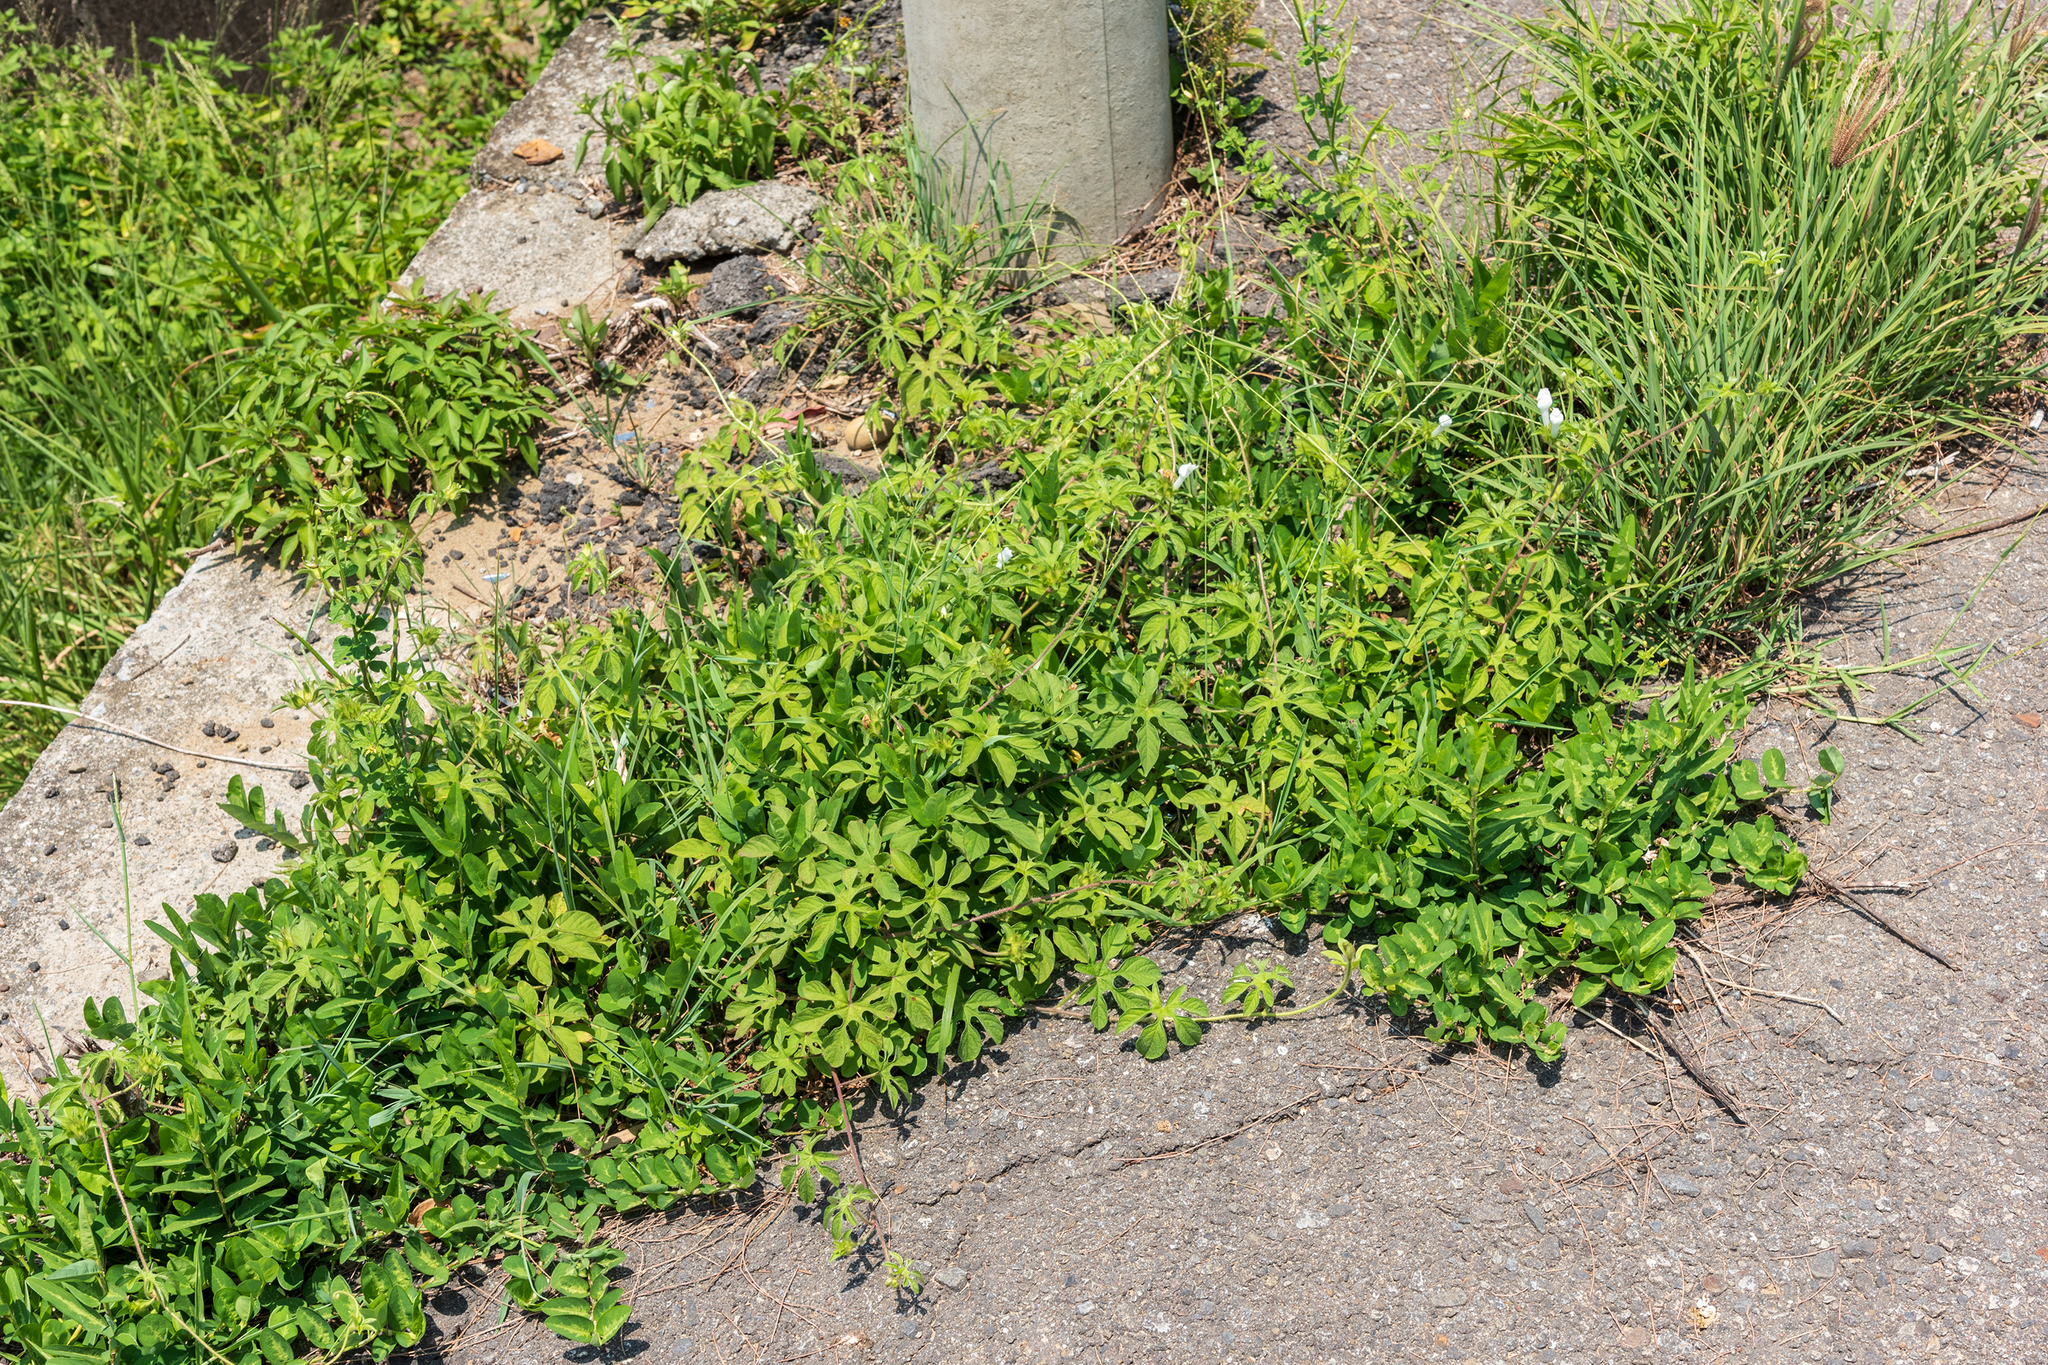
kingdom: Plantae
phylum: Tracheophyta
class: Magnoliopsida
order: Solanales
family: Convolvulaceae
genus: Ipomoea
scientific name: Ipomoea pes-tigridis
